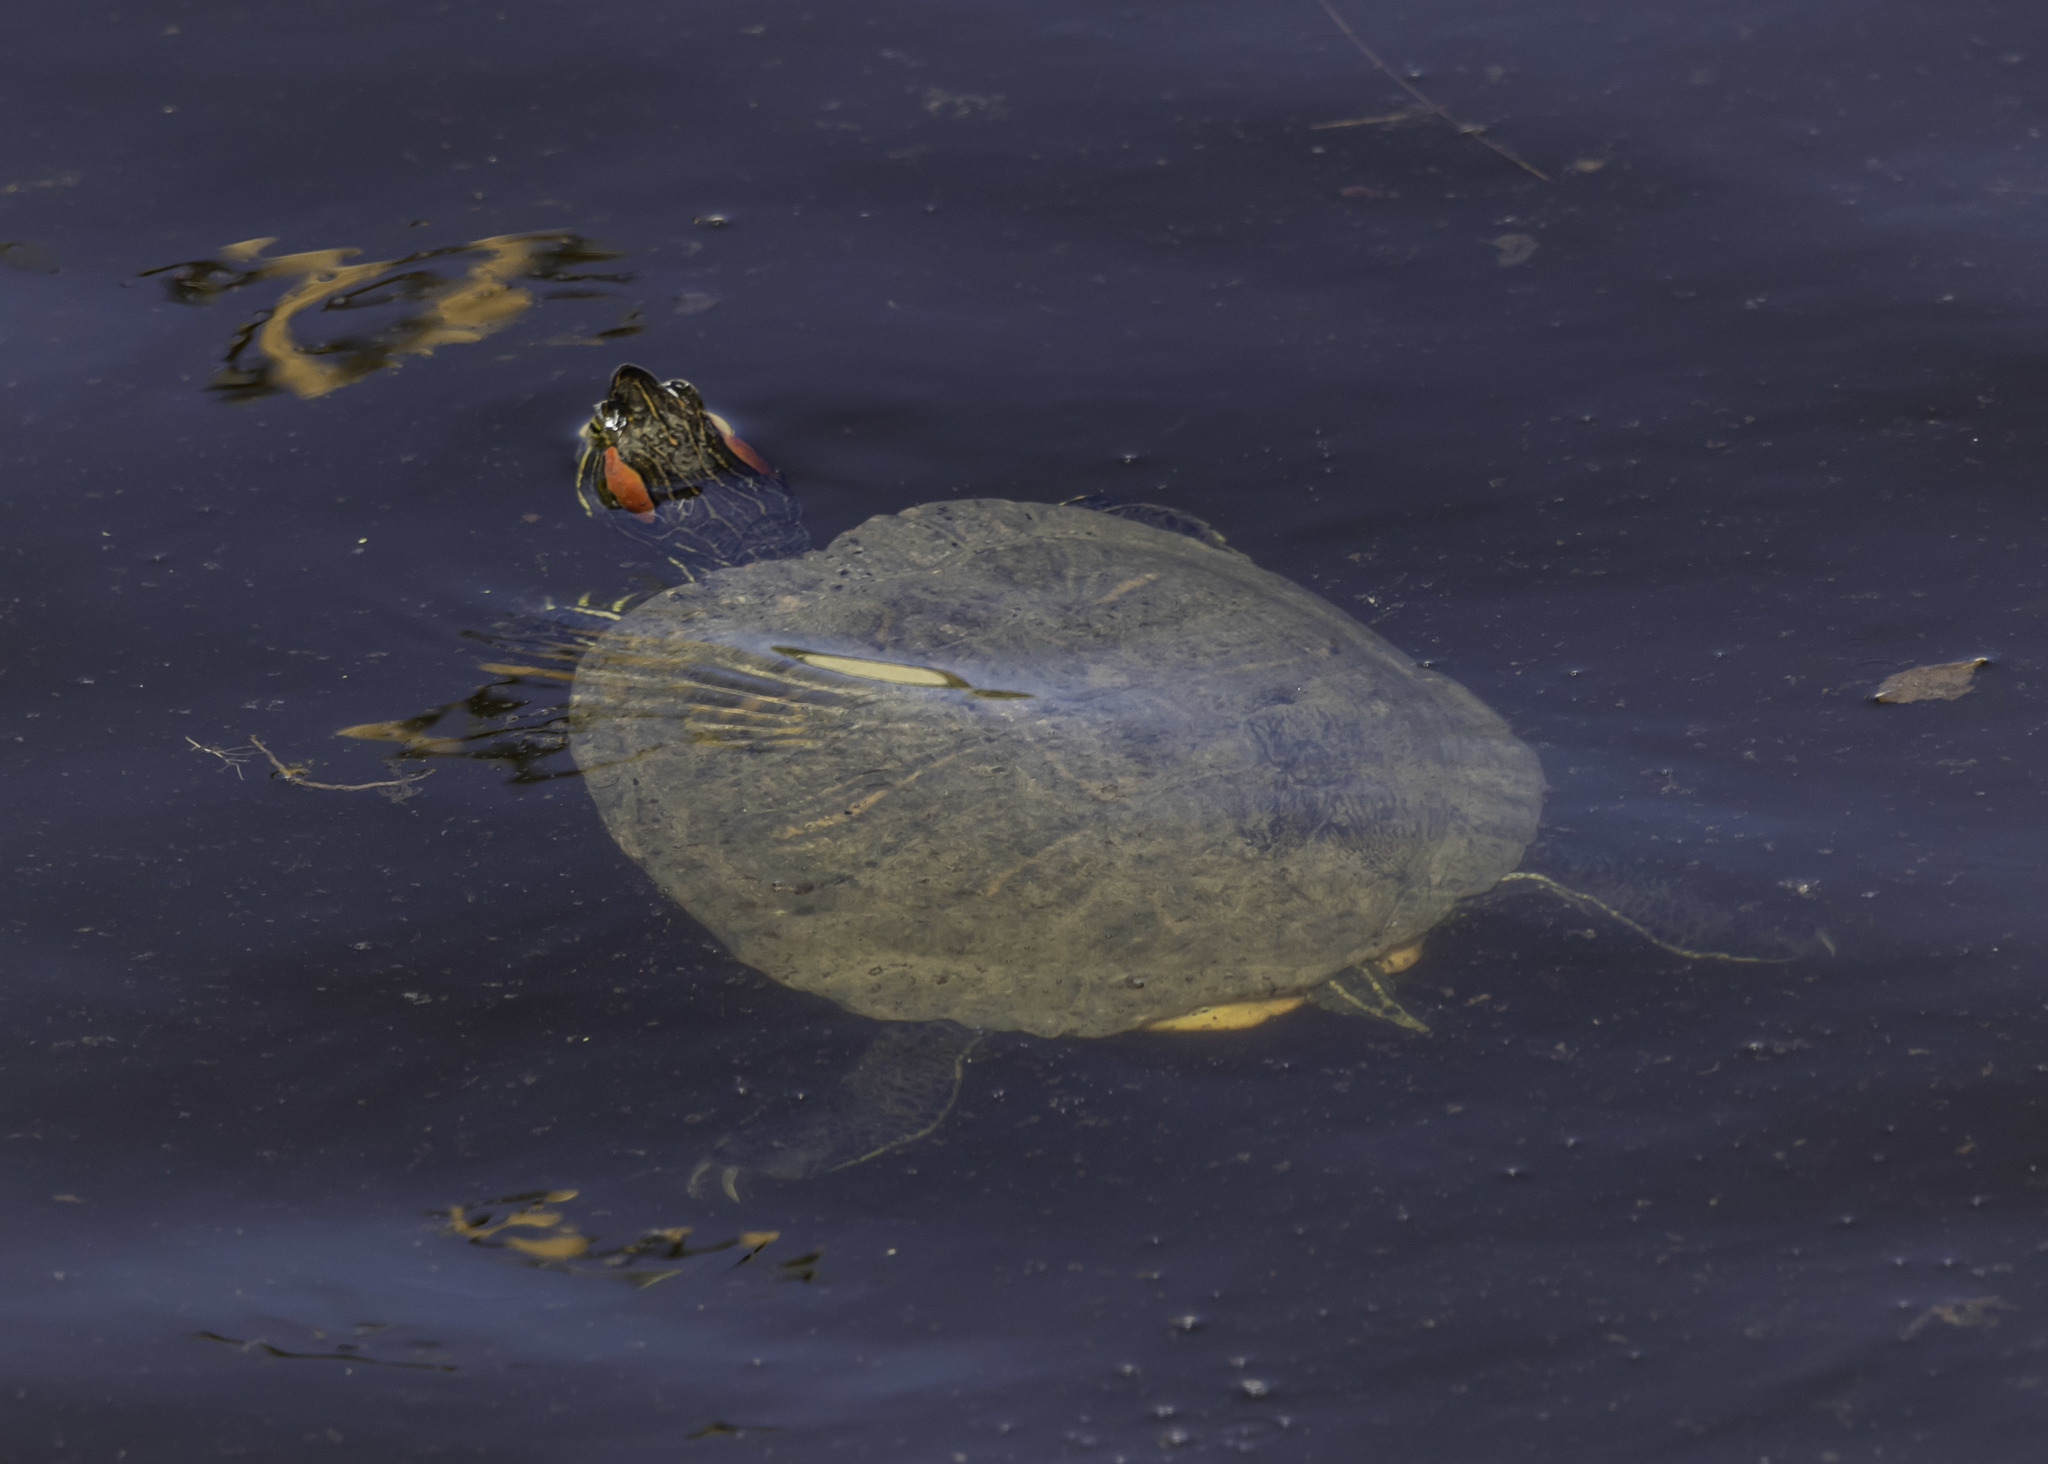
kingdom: Animalia
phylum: Chordata
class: Testudines
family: Emydidae
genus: Trachemys
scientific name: Trachemys scripta
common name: Slider
